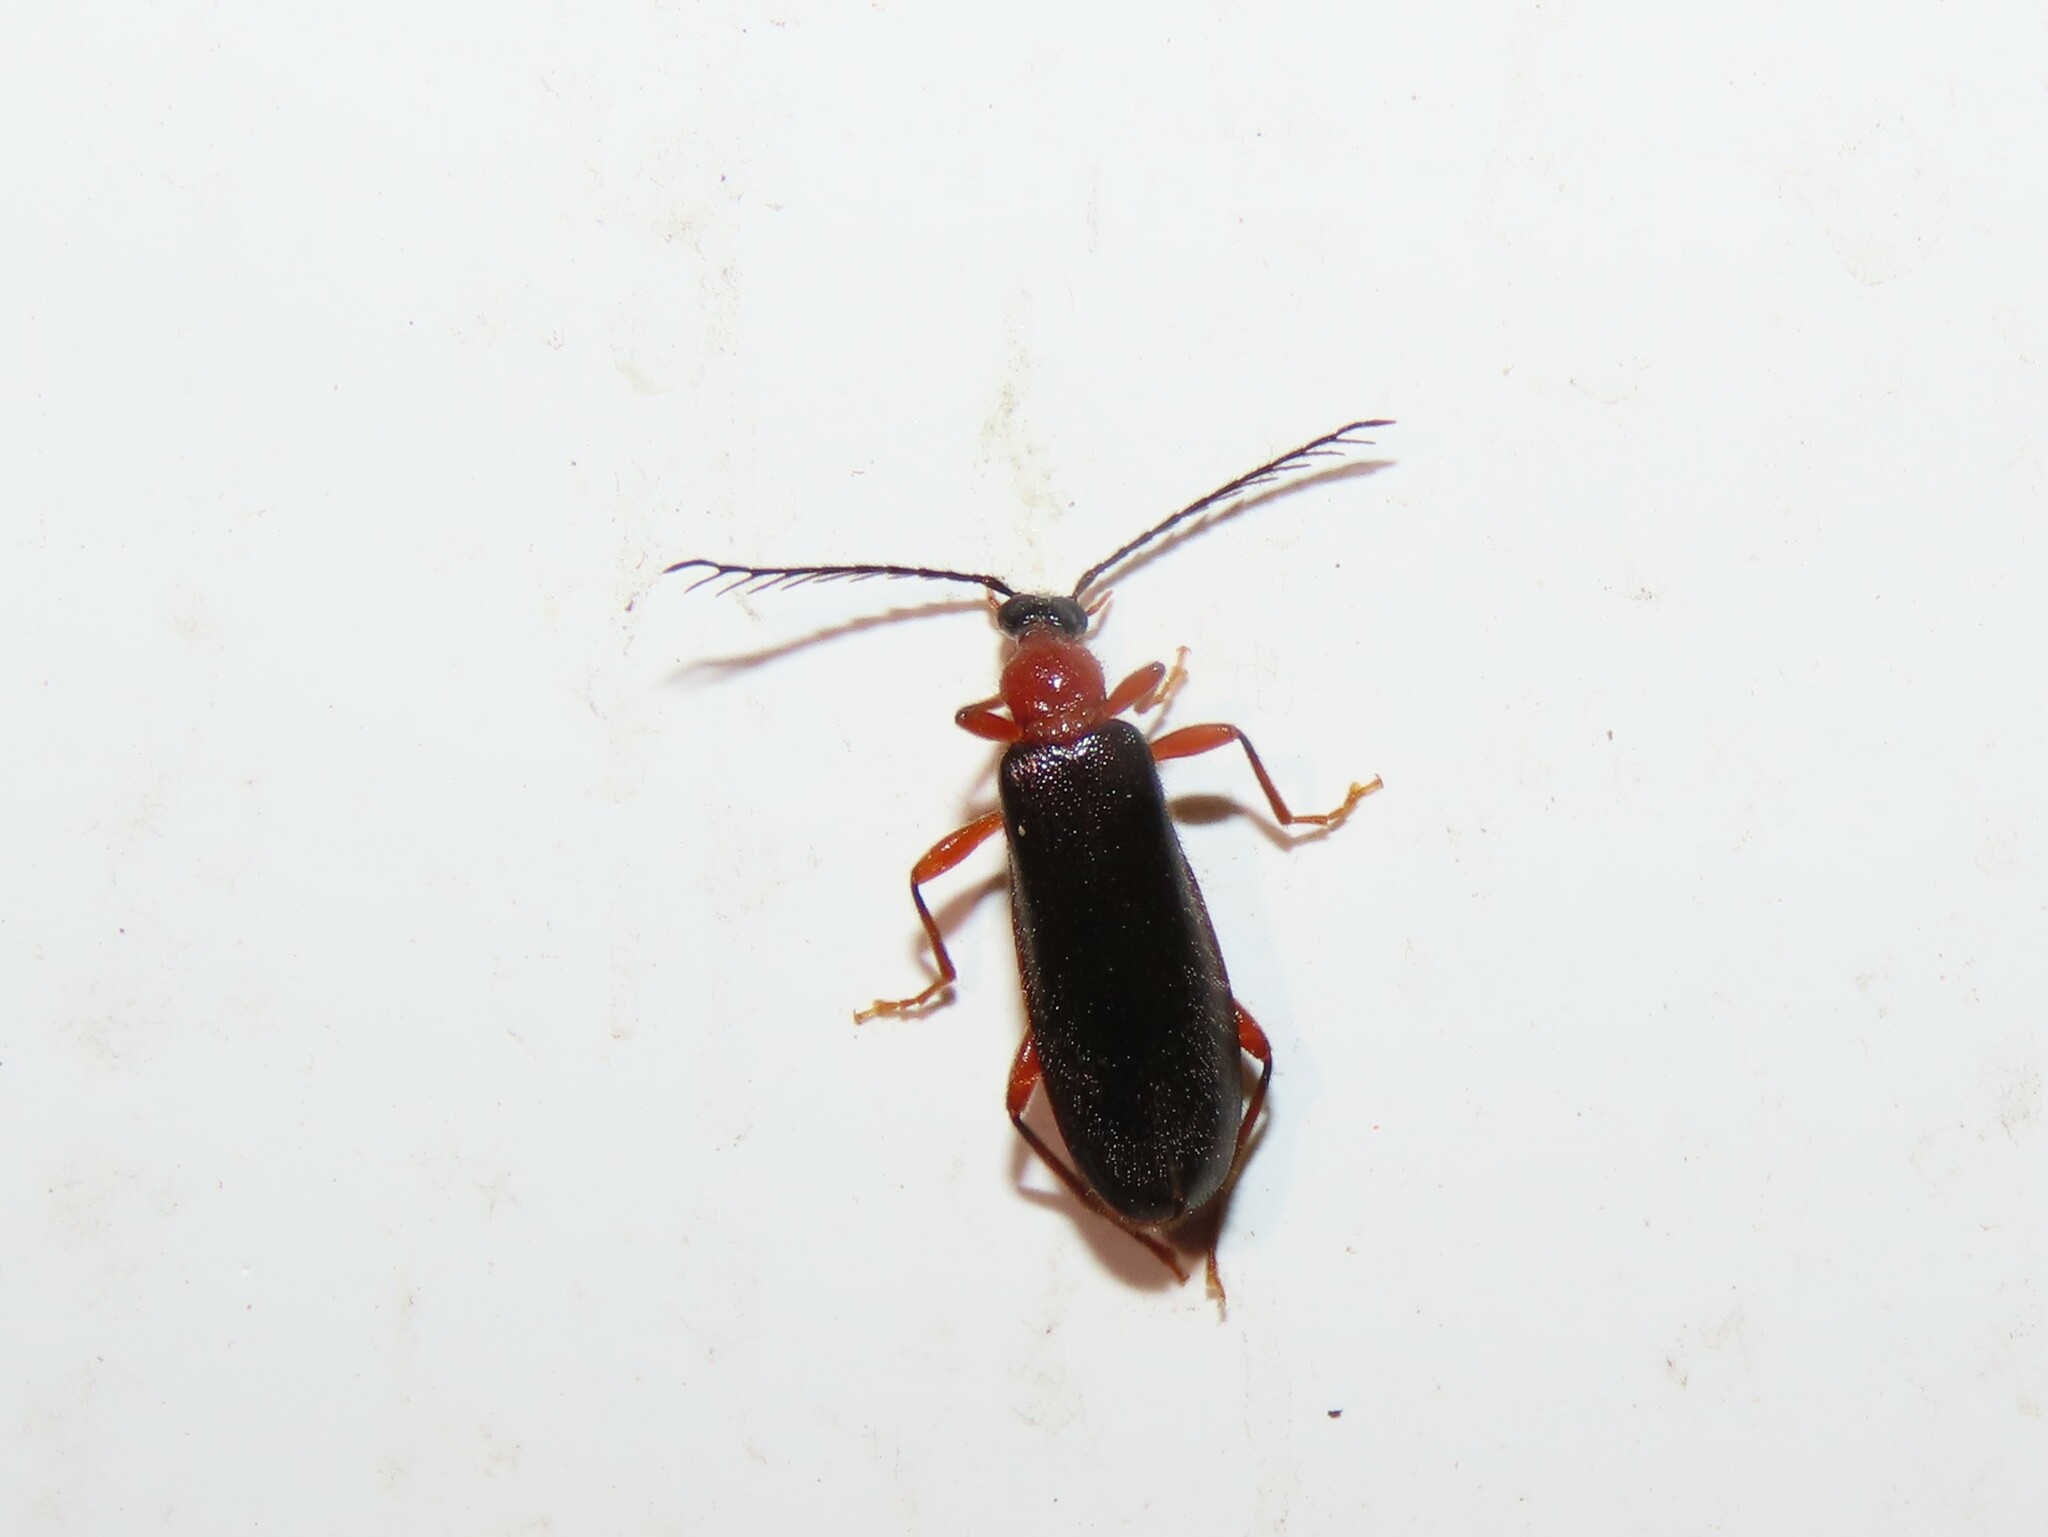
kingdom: Animalia
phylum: Arthropoda
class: Insecta
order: Coleoptera
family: Pyrochroidae
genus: Dendroides
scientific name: Dendroides canadensis
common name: Canada fire-colored beetle
